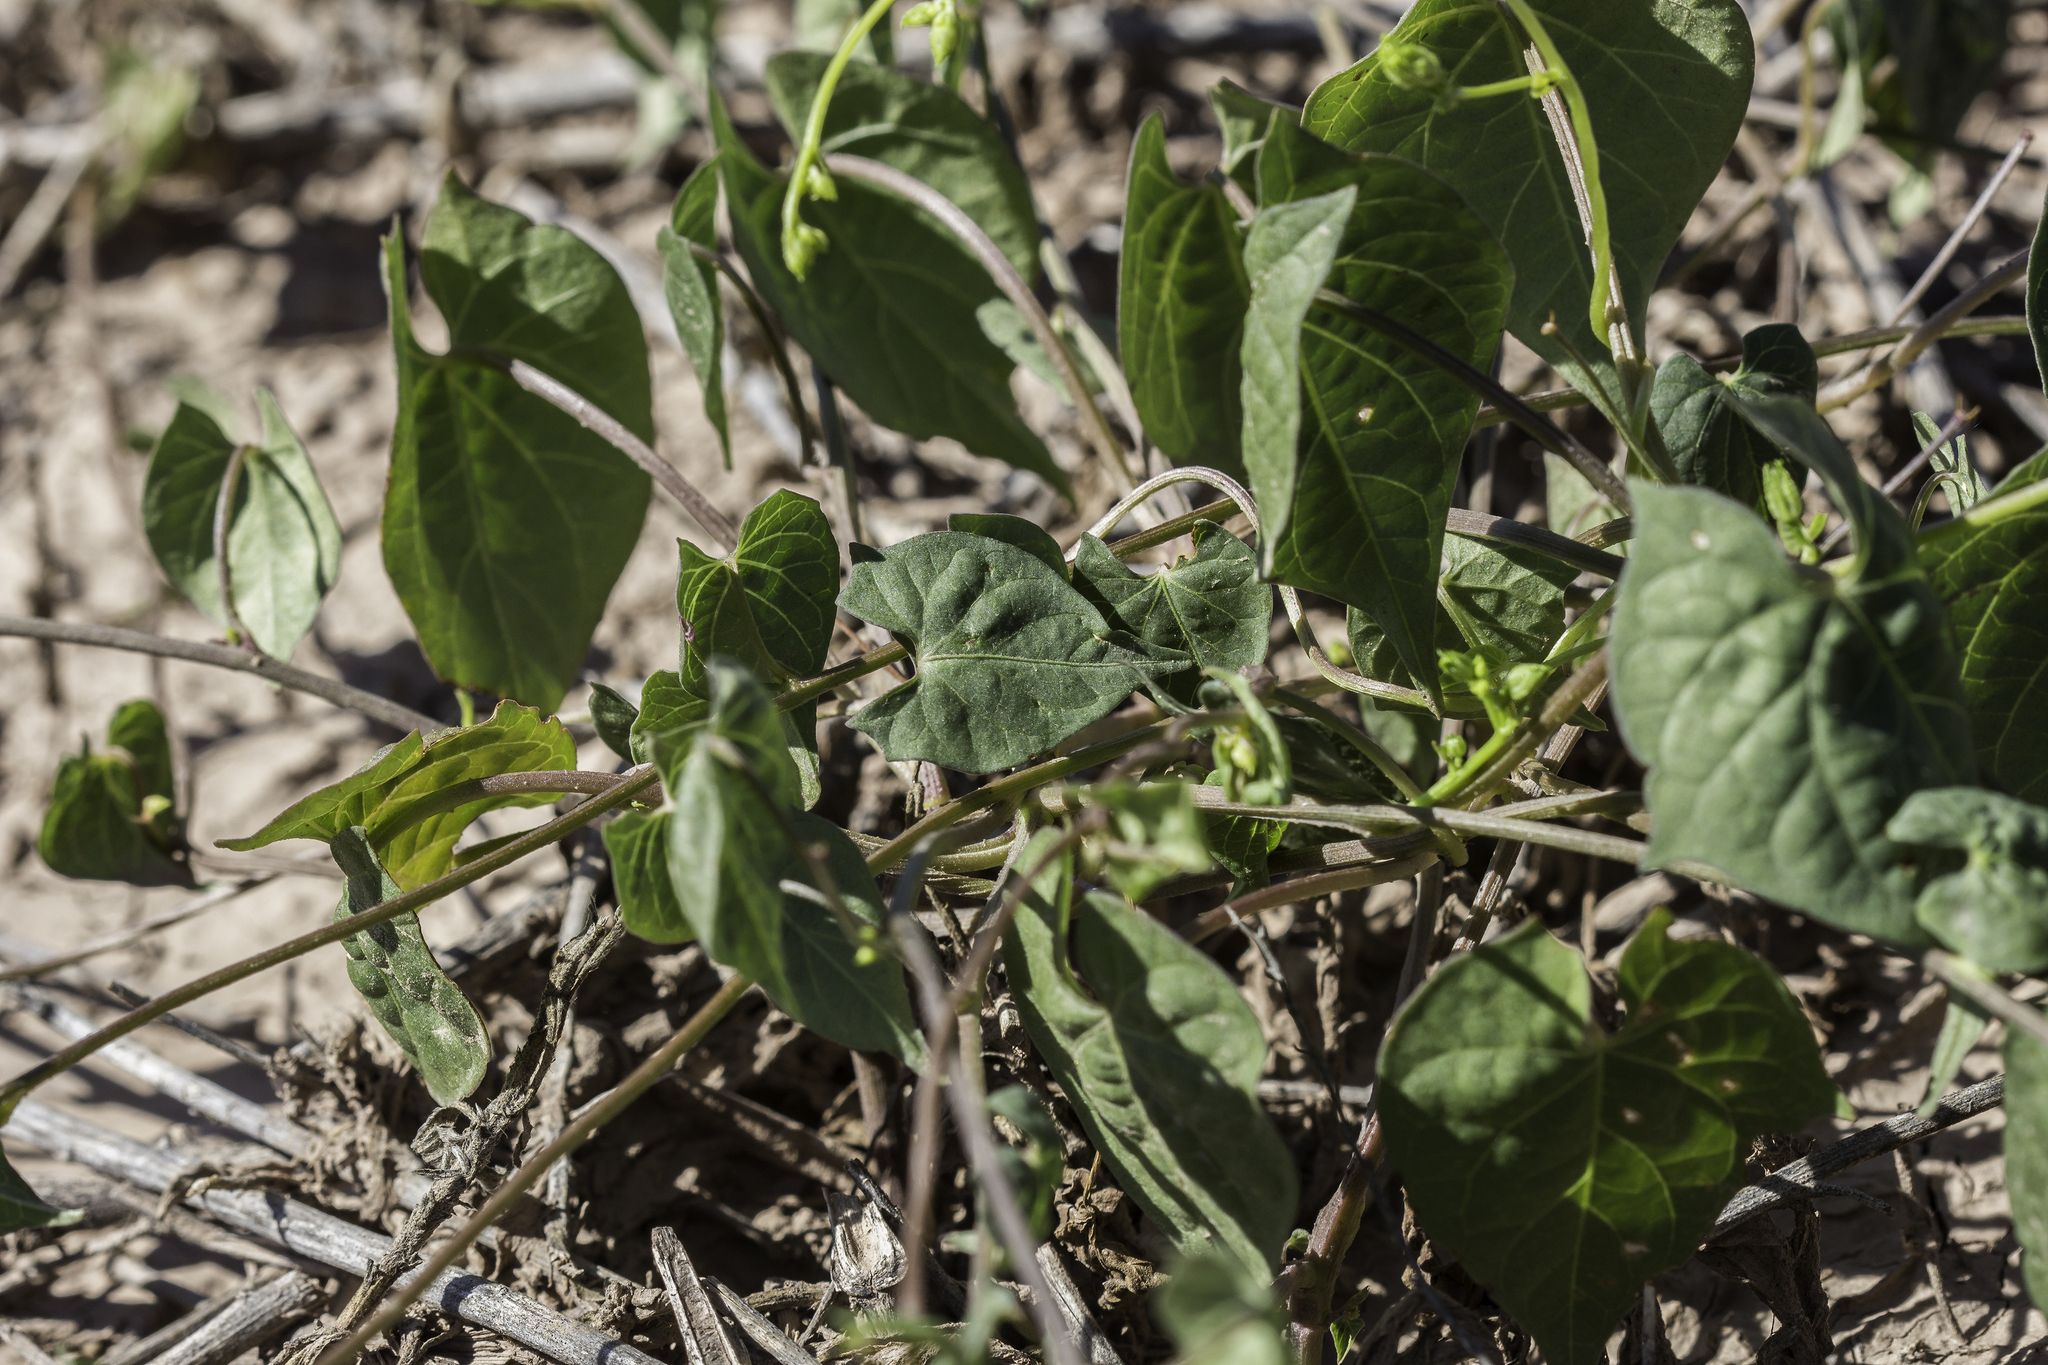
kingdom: Plantae
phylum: Tracheophyta
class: Magnoliopsida
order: Solanales
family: Convolvulaceae
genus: Ipomoea
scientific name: Ipomoea cristulata
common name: Trans-pecos morning-glory
